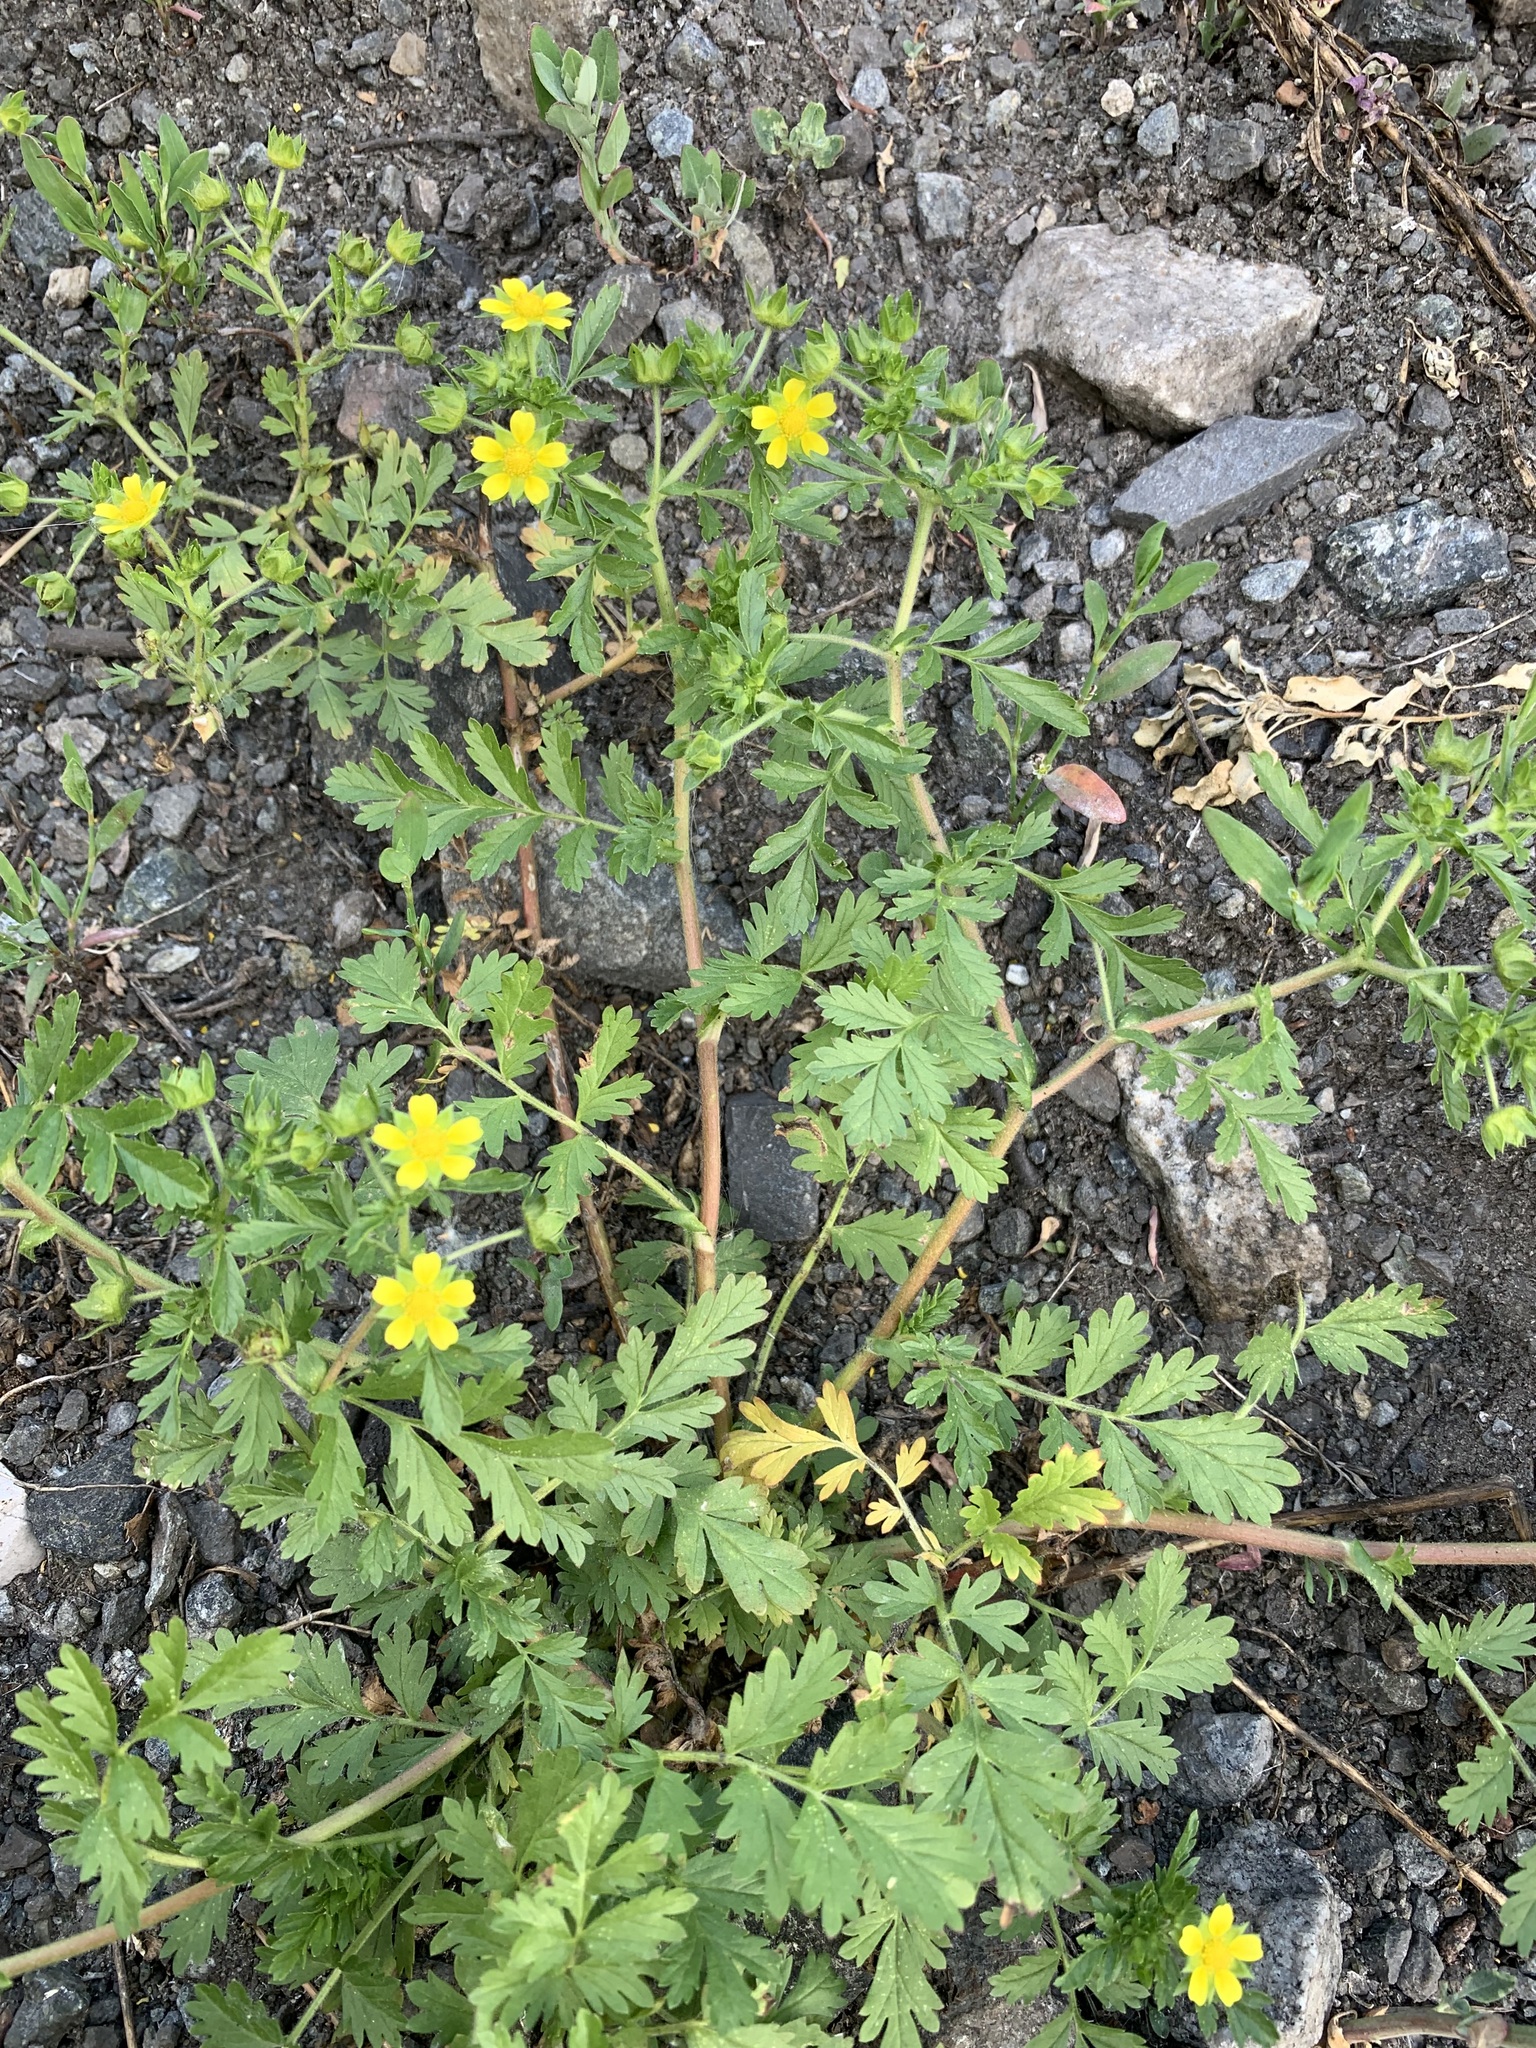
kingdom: Plantae
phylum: Tracheophyta
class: Magnoliopsida
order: Rosales
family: Rosaceae
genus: Potentilla
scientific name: Potentilla supina
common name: Prostrate cinquefoil
